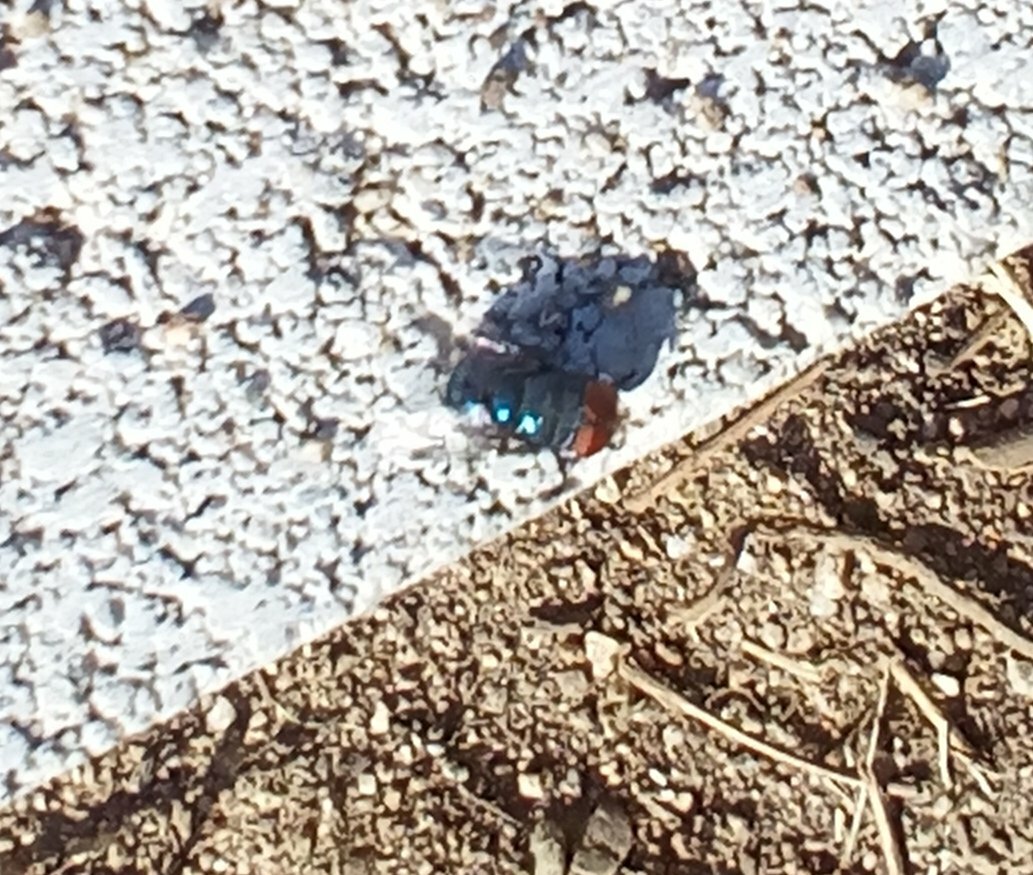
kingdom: Animalia
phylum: Arthropoda
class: Insecta
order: Diptera
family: Calliphoridae
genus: Chrysomya
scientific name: Chrysomya megacephala
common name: Blow fly
